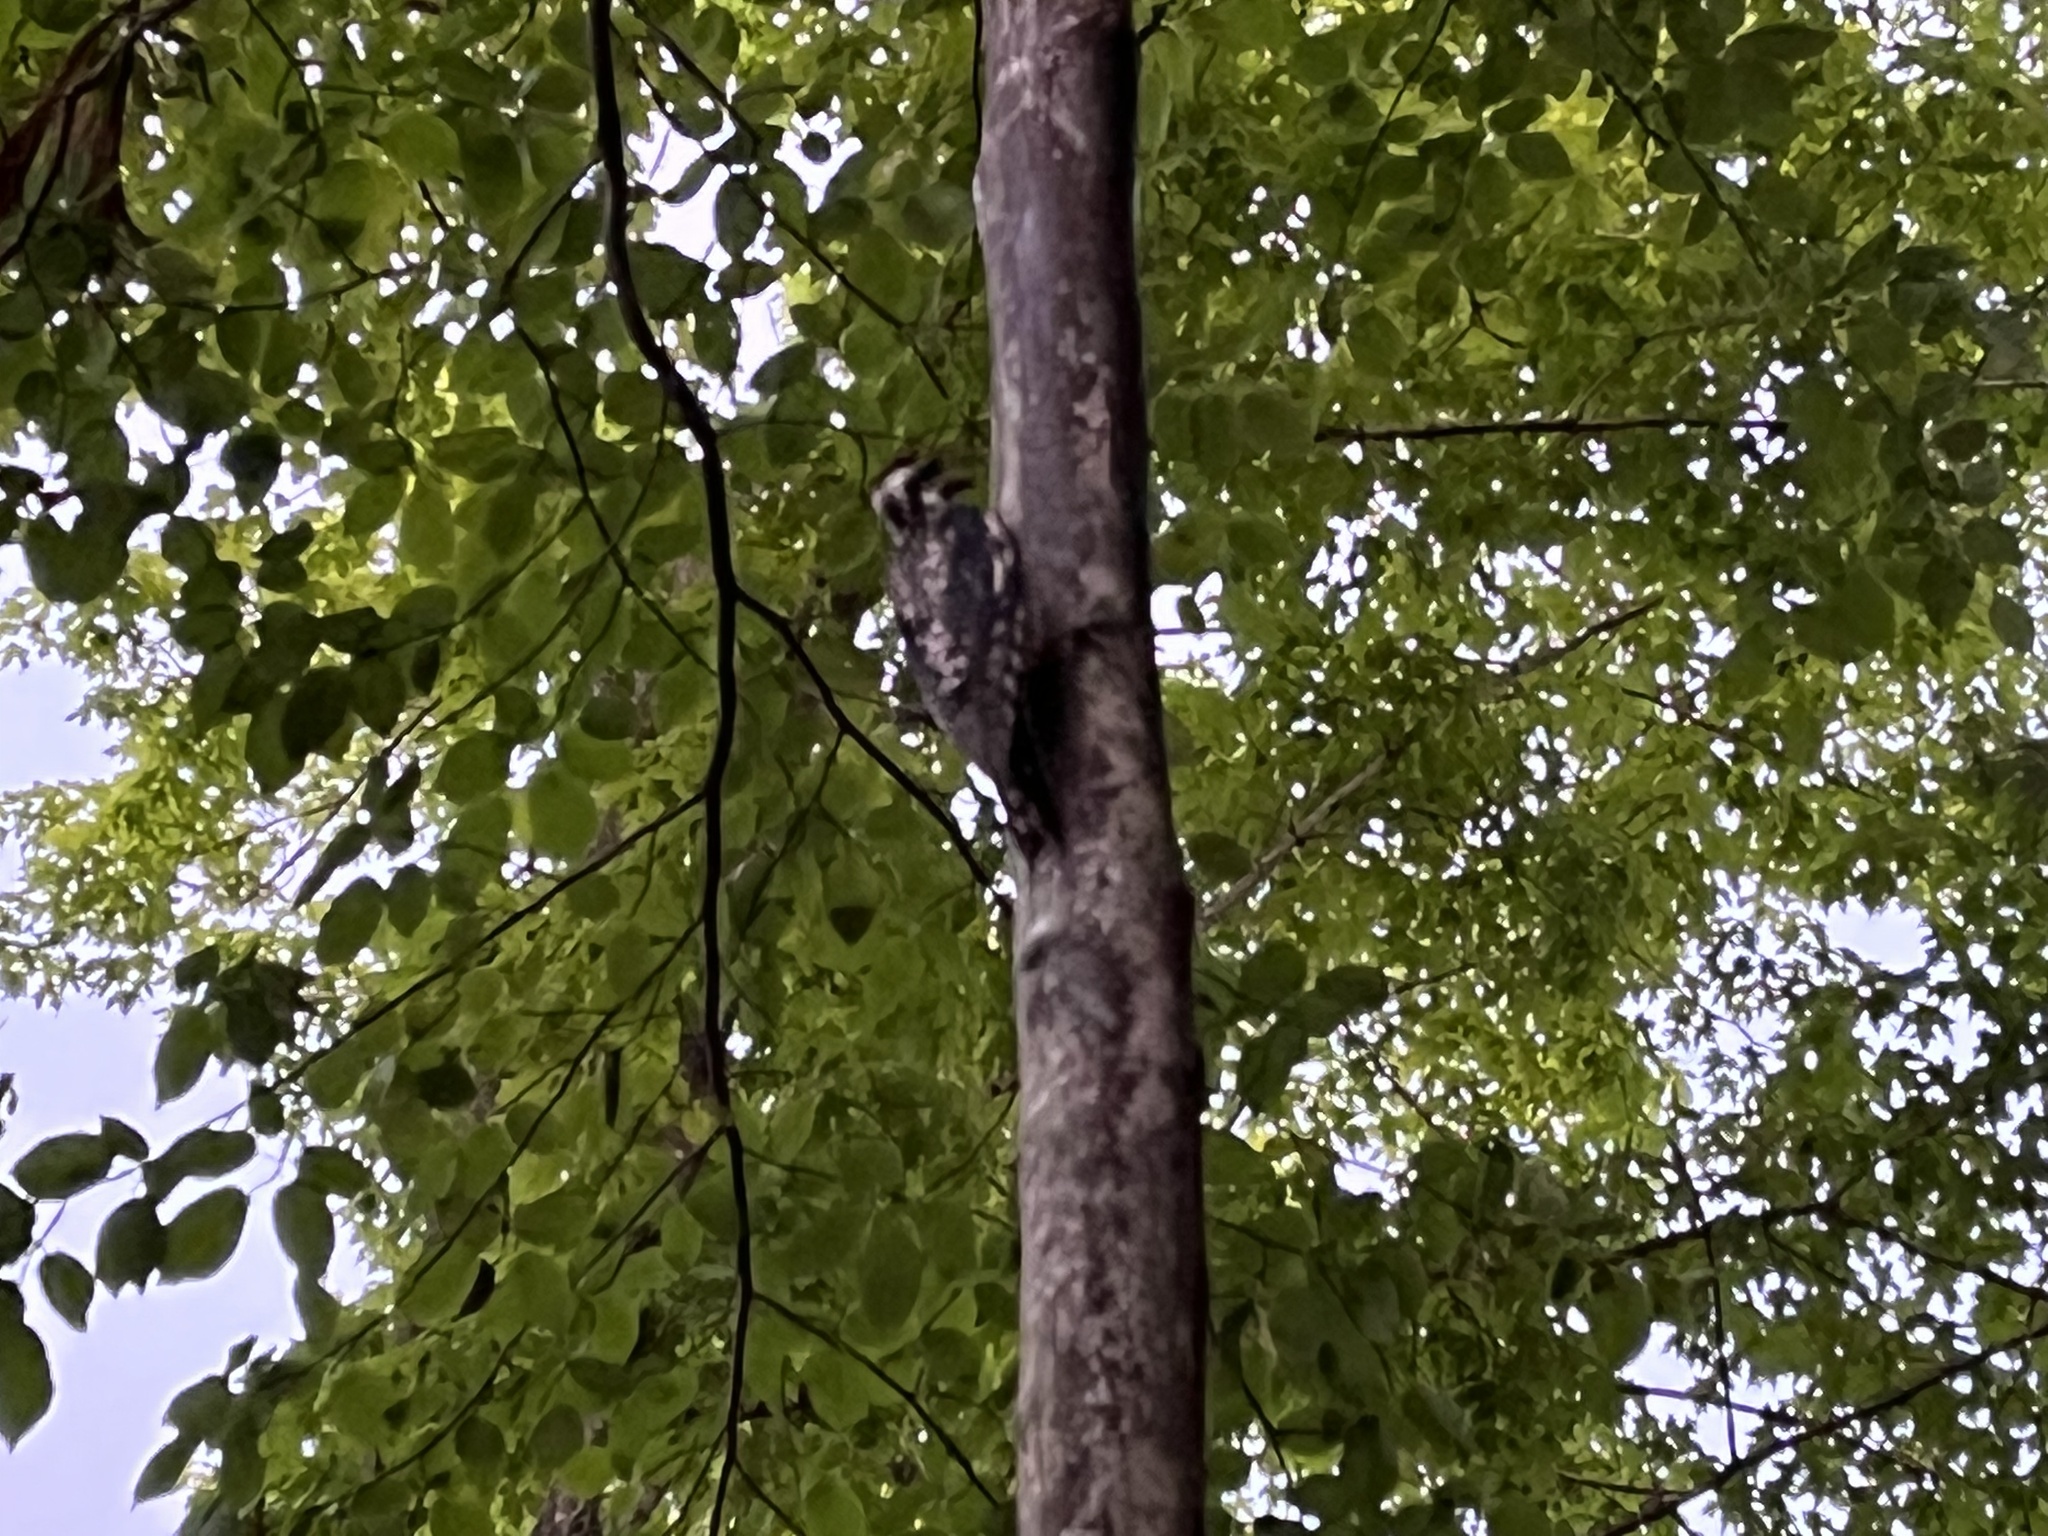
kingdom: Animalia
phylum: Chordata
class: Aves
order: Piciformes
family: Picidae
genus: Sphyrapicus
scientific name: Sphyrapicus varius
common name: Yellow-bellied sapsucker
